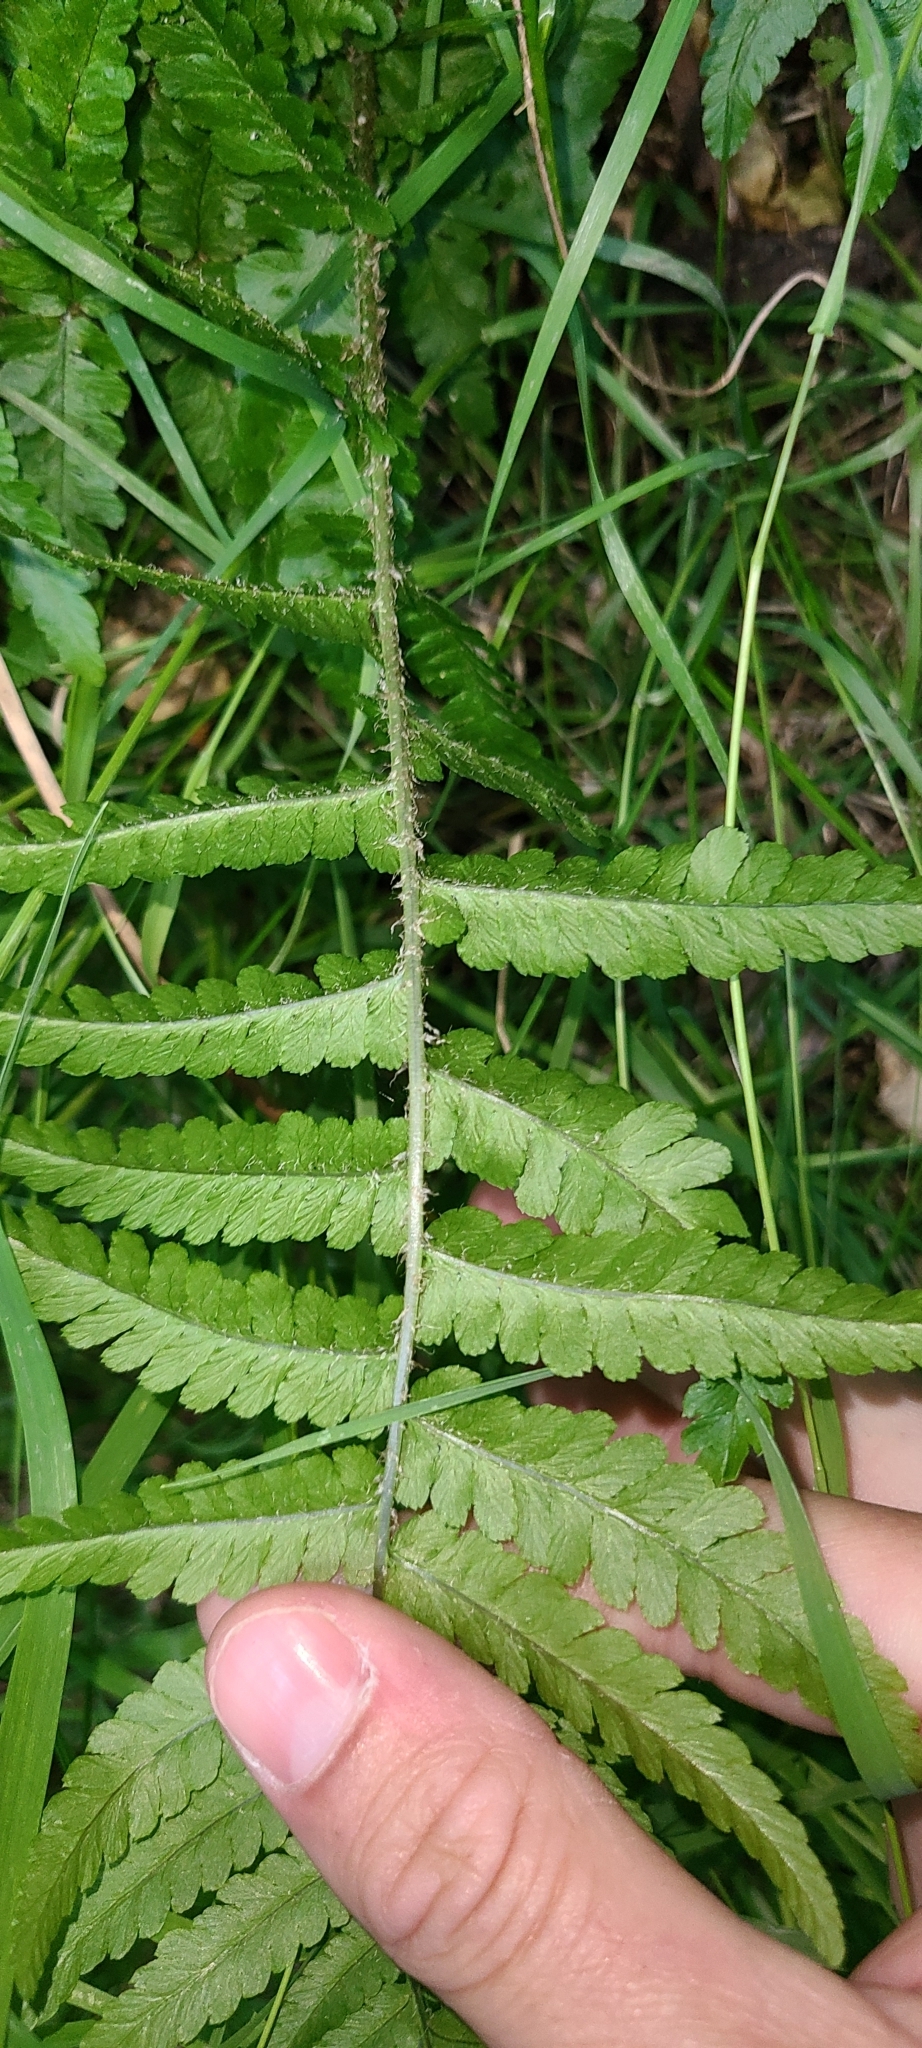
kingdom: Plantae
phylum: Tracheophyta
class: Polypodiopsida
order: Polypodiales
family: Dryopteridaceae
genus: Dryopteris
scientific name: Dryopteris filix-mas
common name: Male fern
